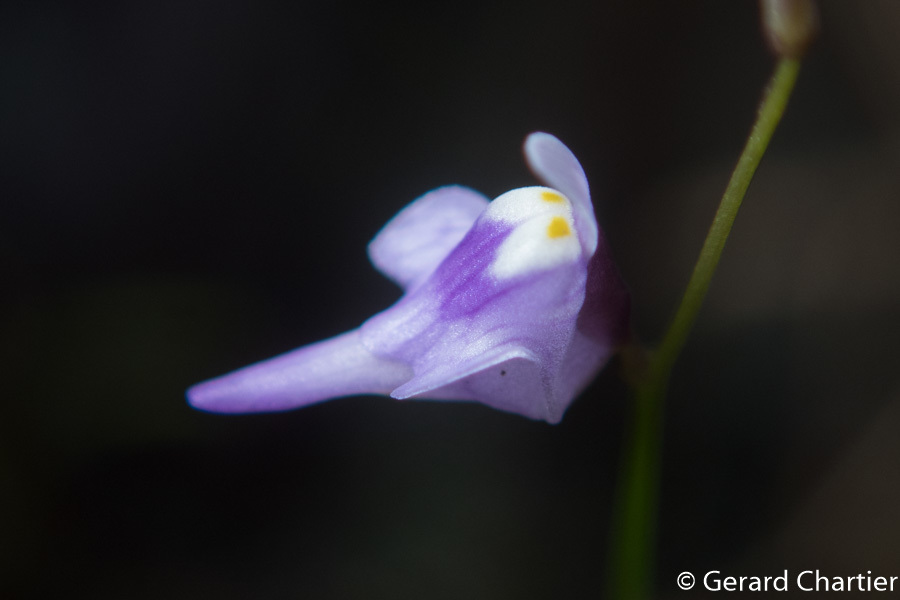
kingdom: Plantae
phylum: Tracheophyta
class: Magnoliopsida
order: Lamiales
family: Lentibulariaceae
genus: Utricularia
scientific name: Utricularia geoffrayi
